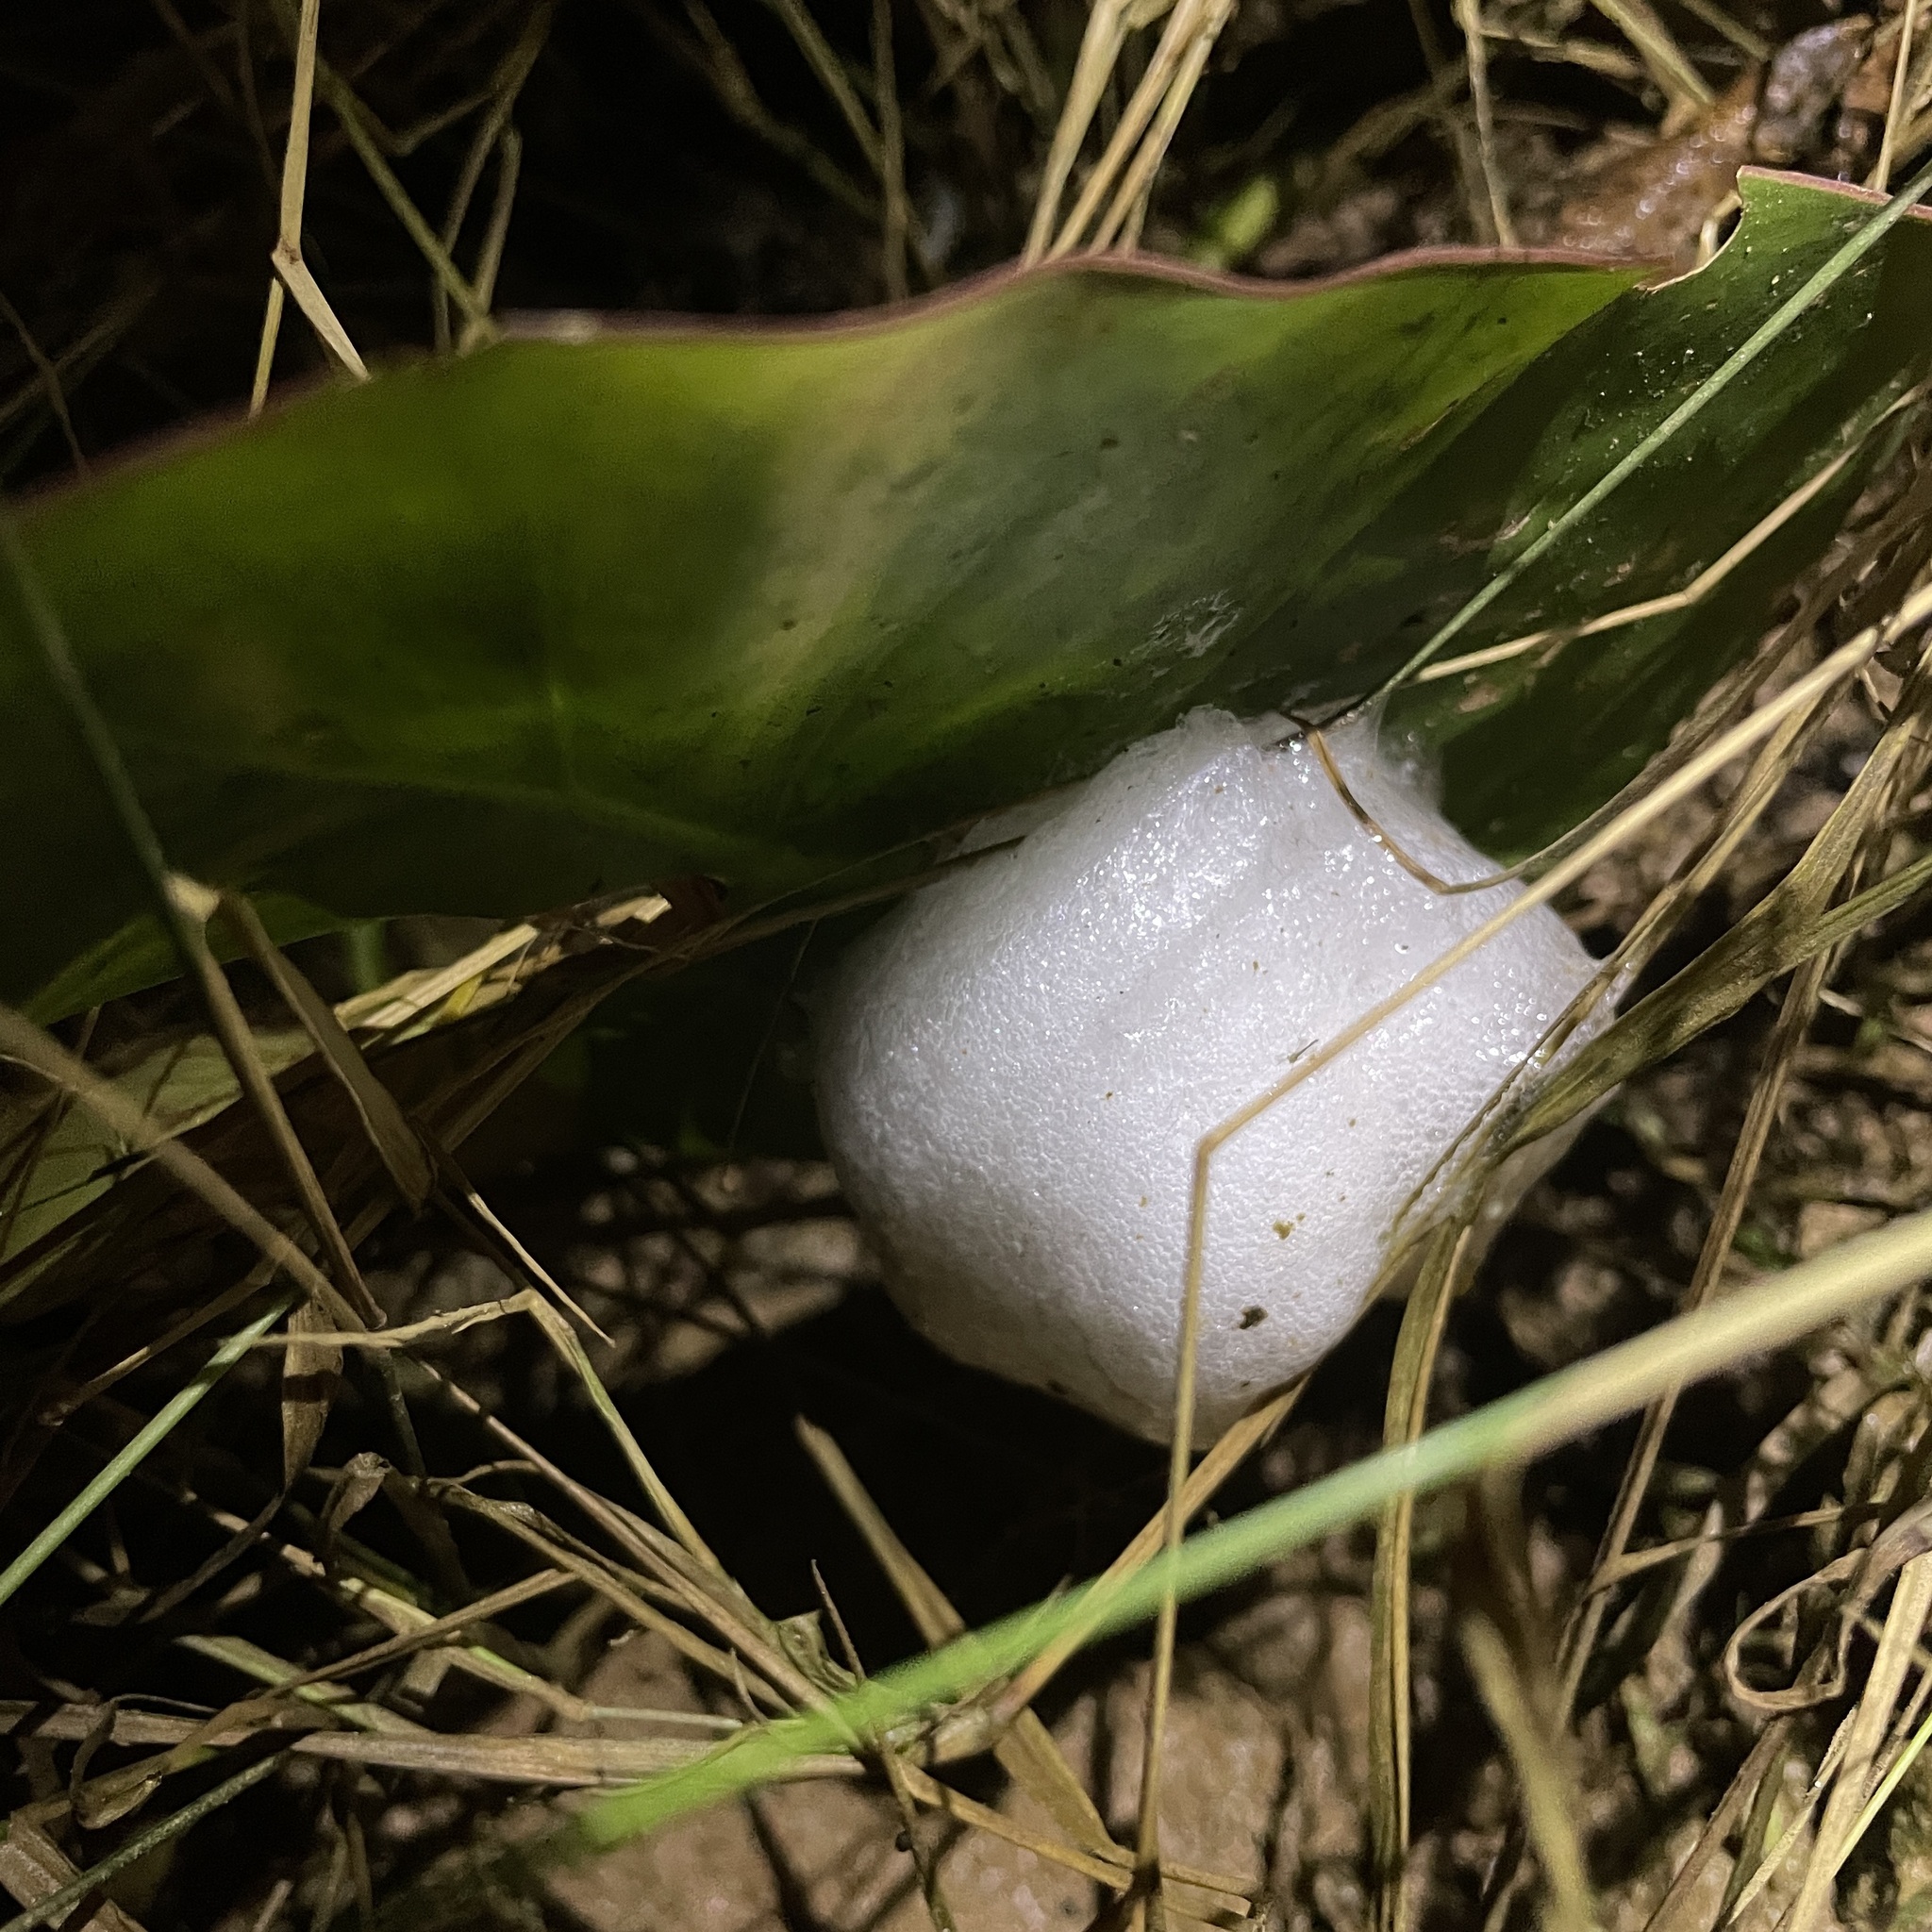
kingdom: Animalia
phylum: Chordata
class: Amphibia
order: Anura
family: Leptodactylidae
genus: Leptodactylus
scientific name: Leptodactylus fuscus
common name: Rufous frog
